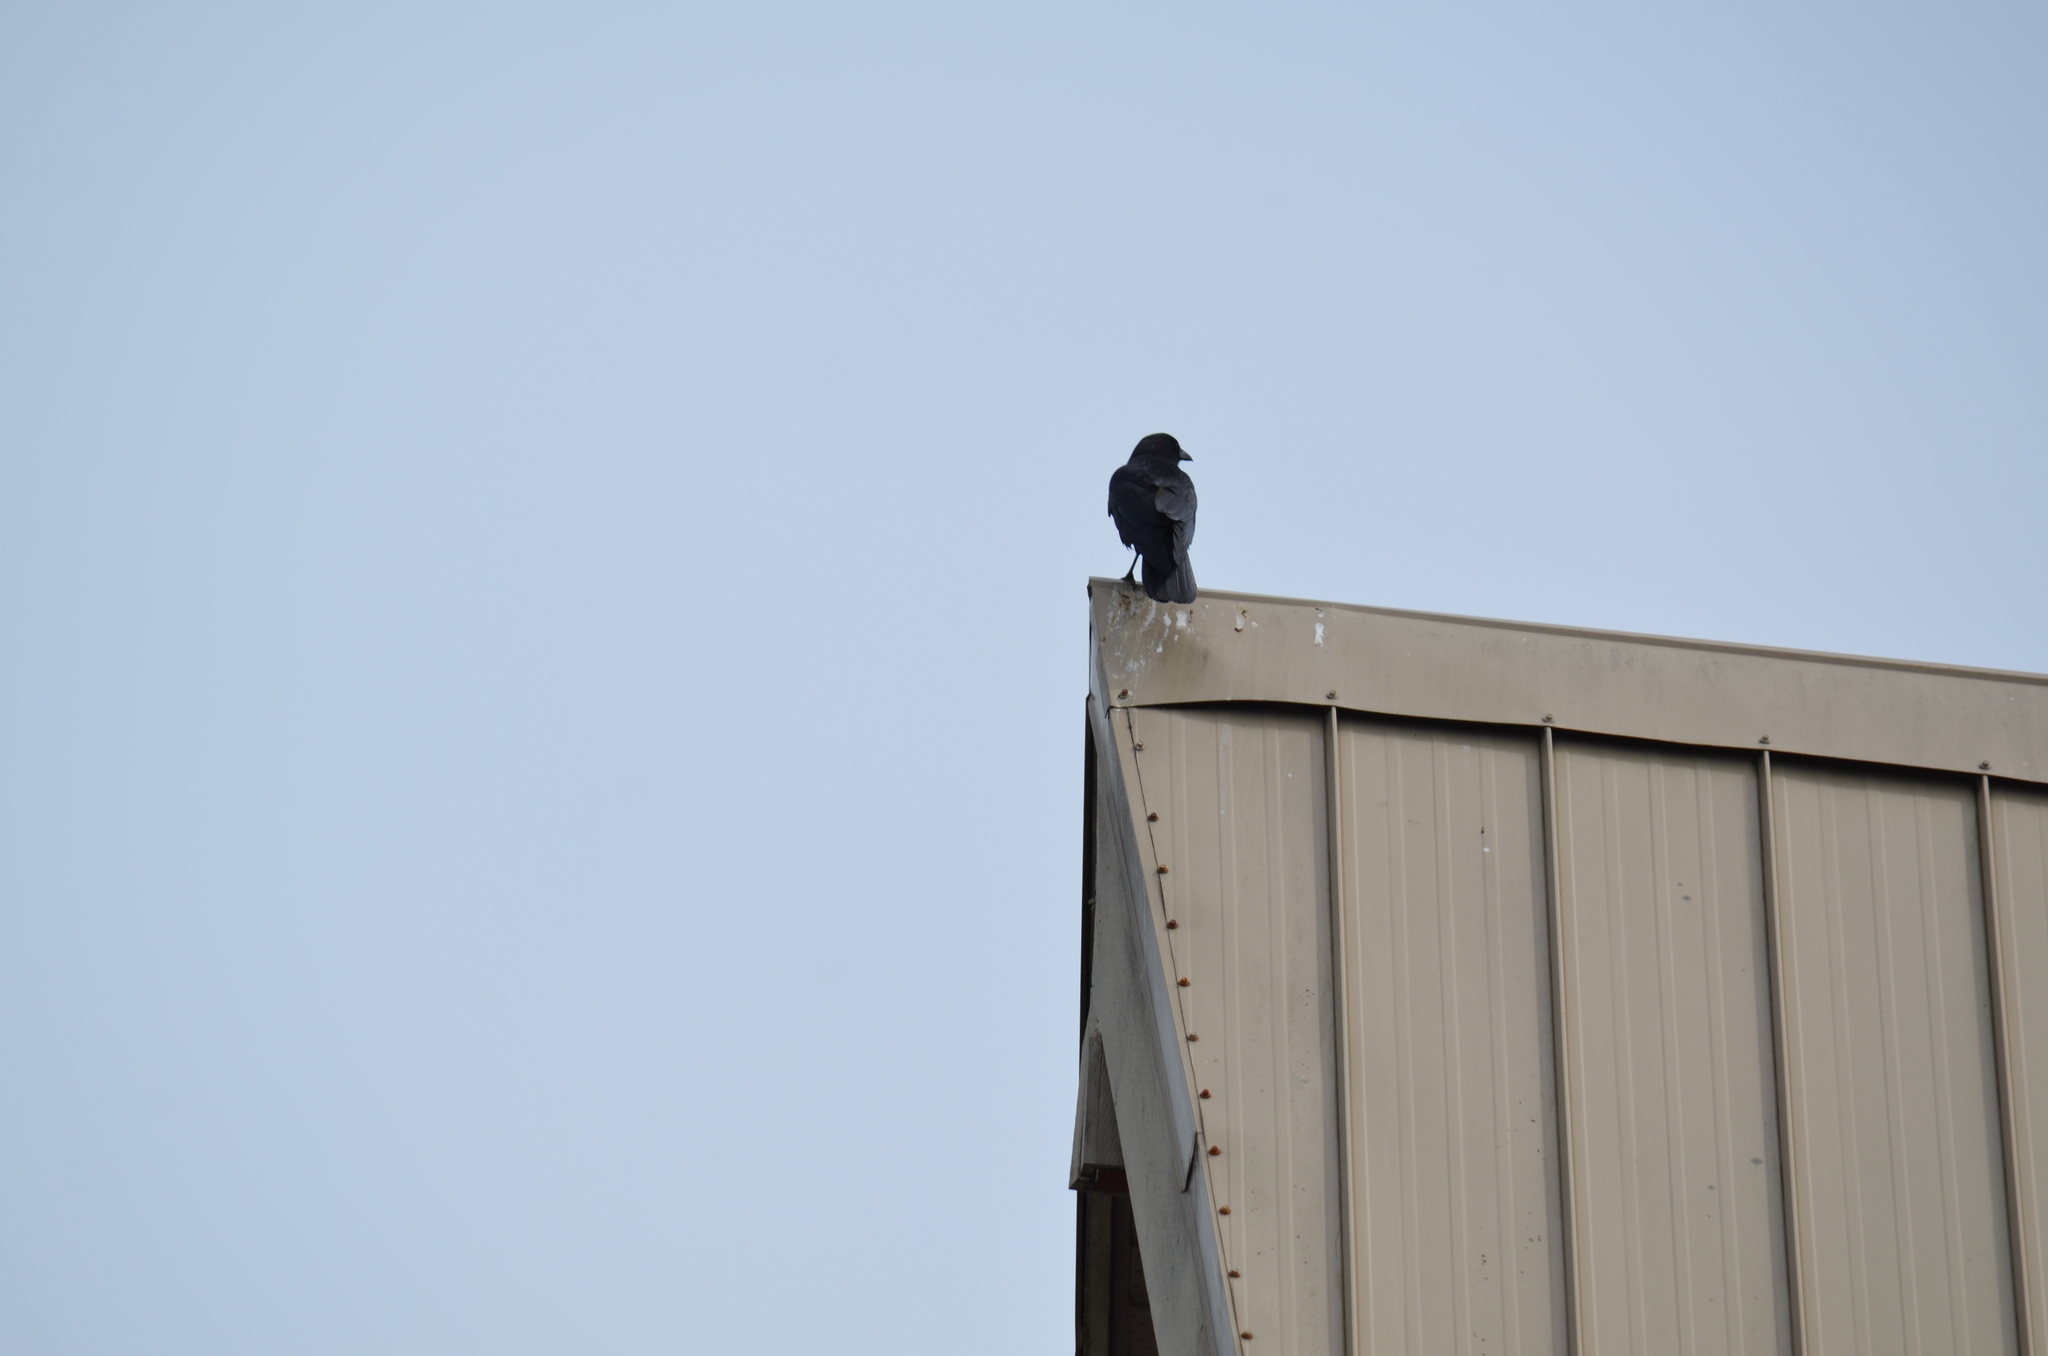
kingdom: Animalia
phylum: Chordata
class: Aves
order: Passeriformes
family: Corvidae
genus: Corvus
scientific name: Corvus brachyrhynchos
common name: American crow
